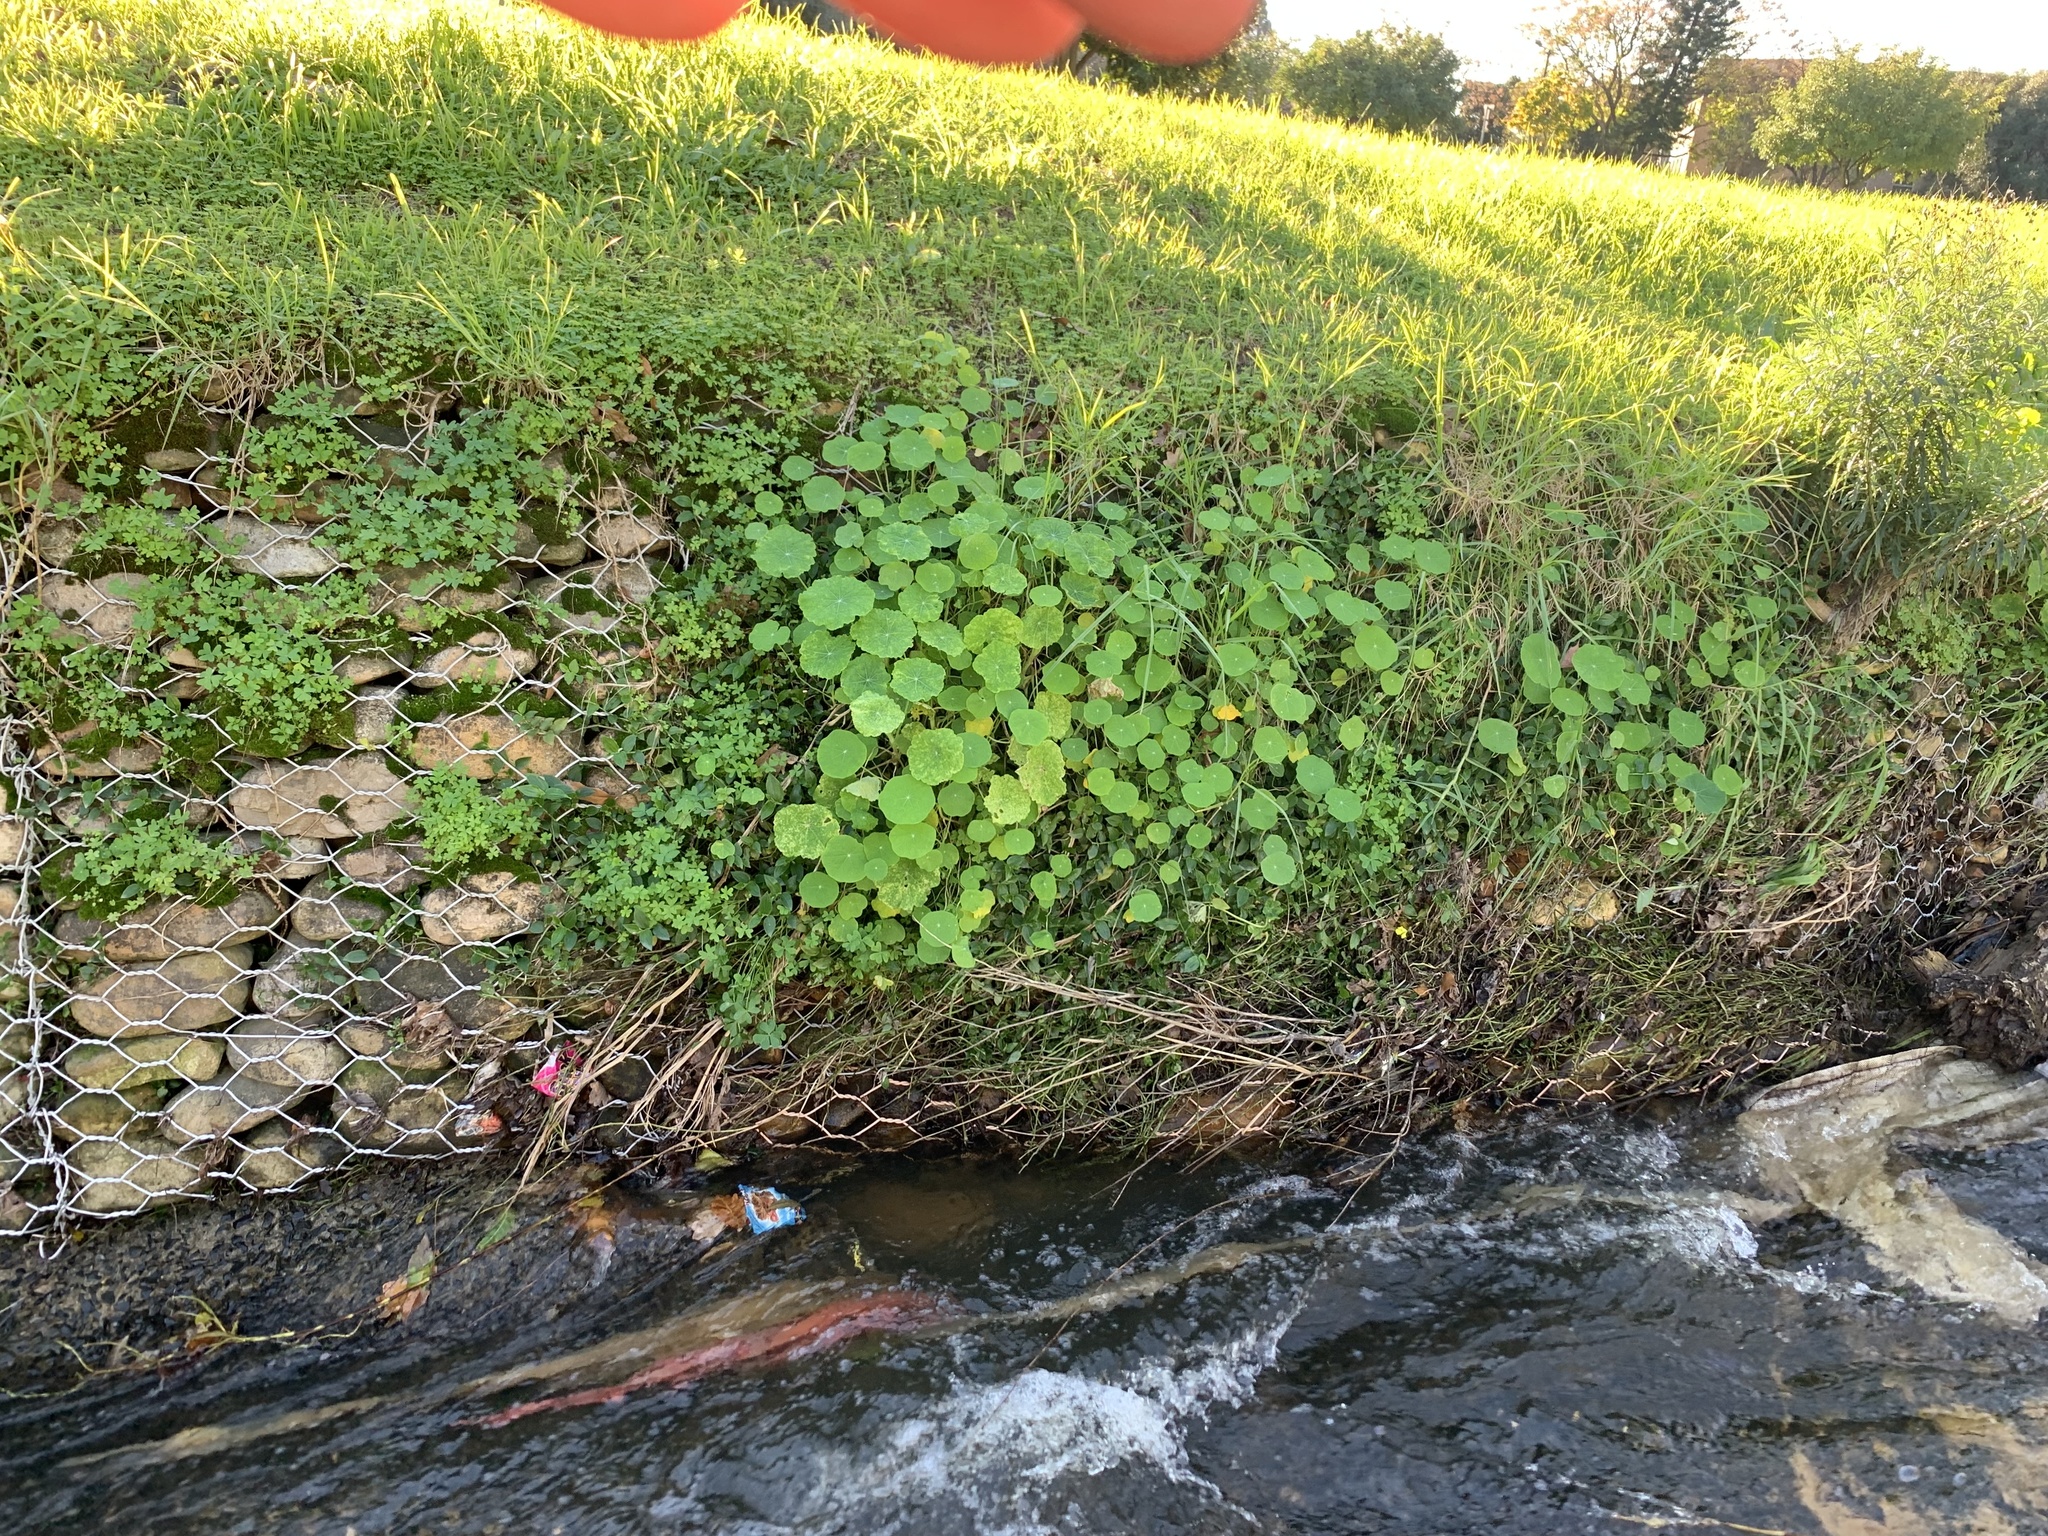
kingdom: Plantae
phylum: Tracheophyta
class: Magnoliopsida
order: Brassicales
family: Tropaeolaceae
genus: Tropaeolum
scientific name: Tropaeolum majus
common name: Nasturtium
